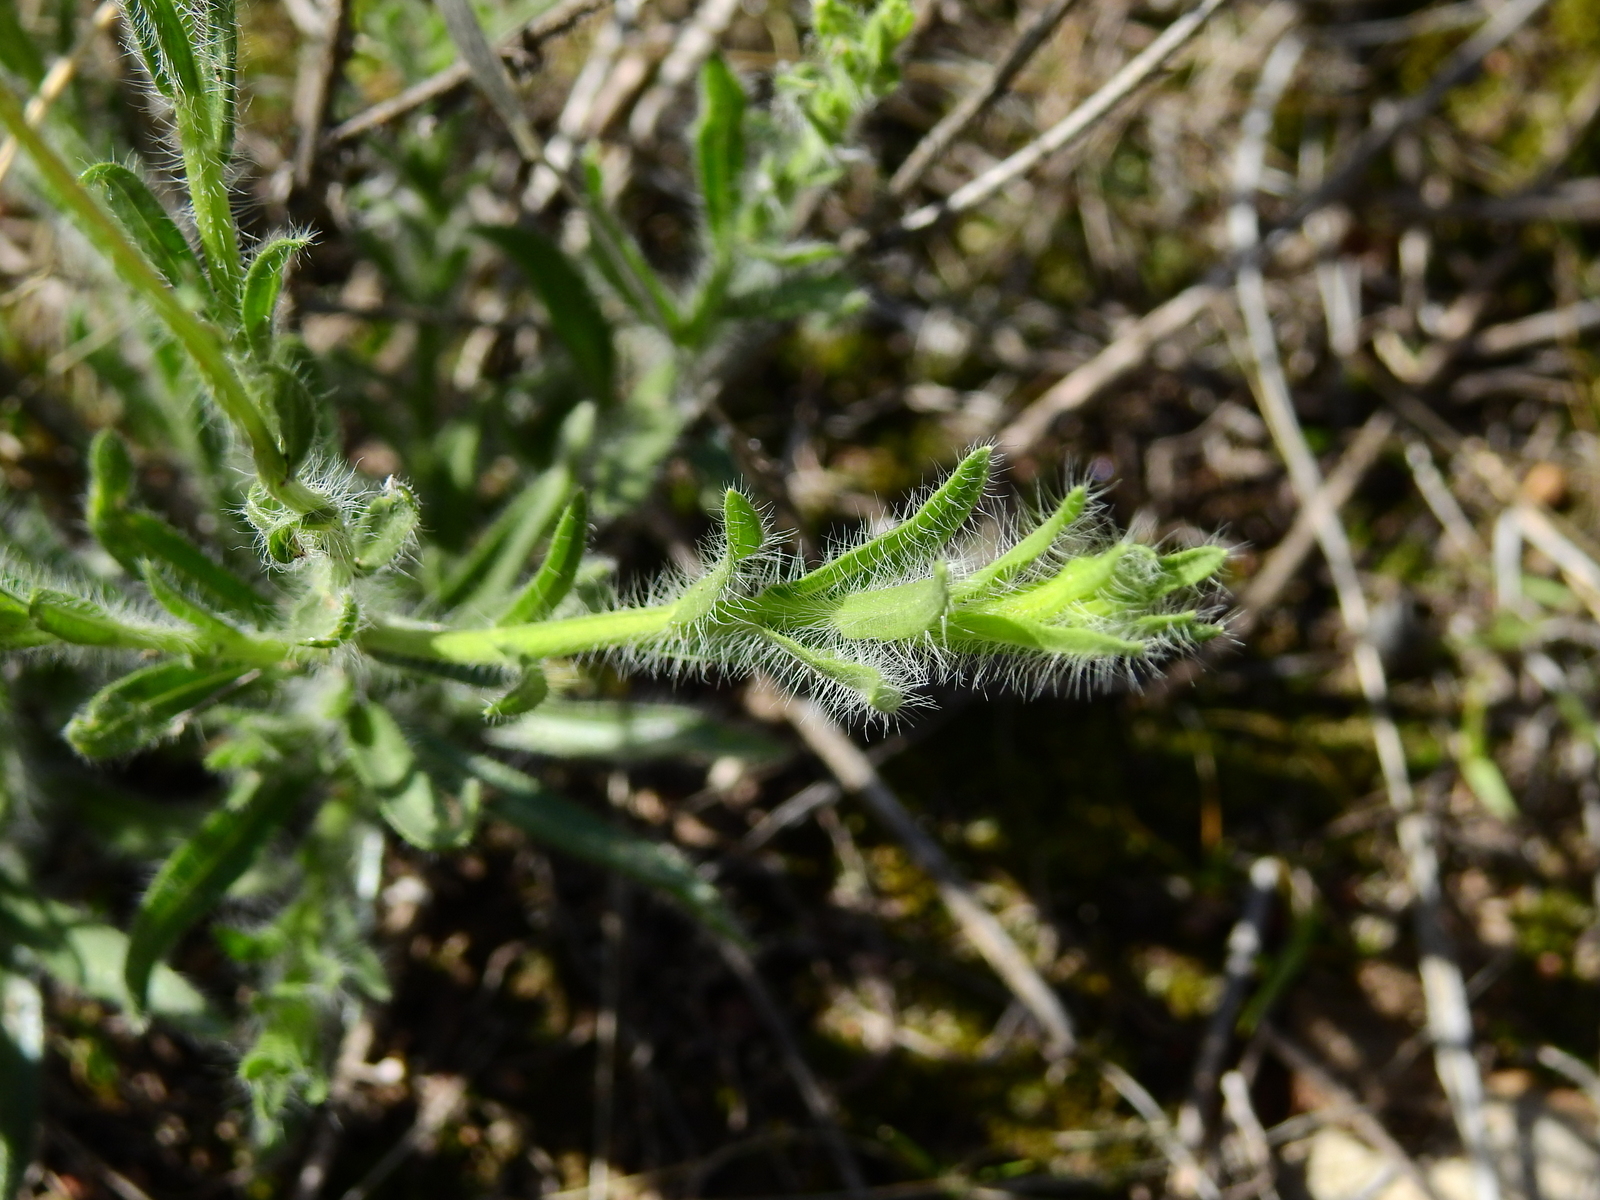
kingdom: Plantae
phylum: Tracheophyta
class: Magnoliopsida
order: Asterales
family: Asteraceae
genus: Hysterionica
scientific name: Hysterionica jasionoides
